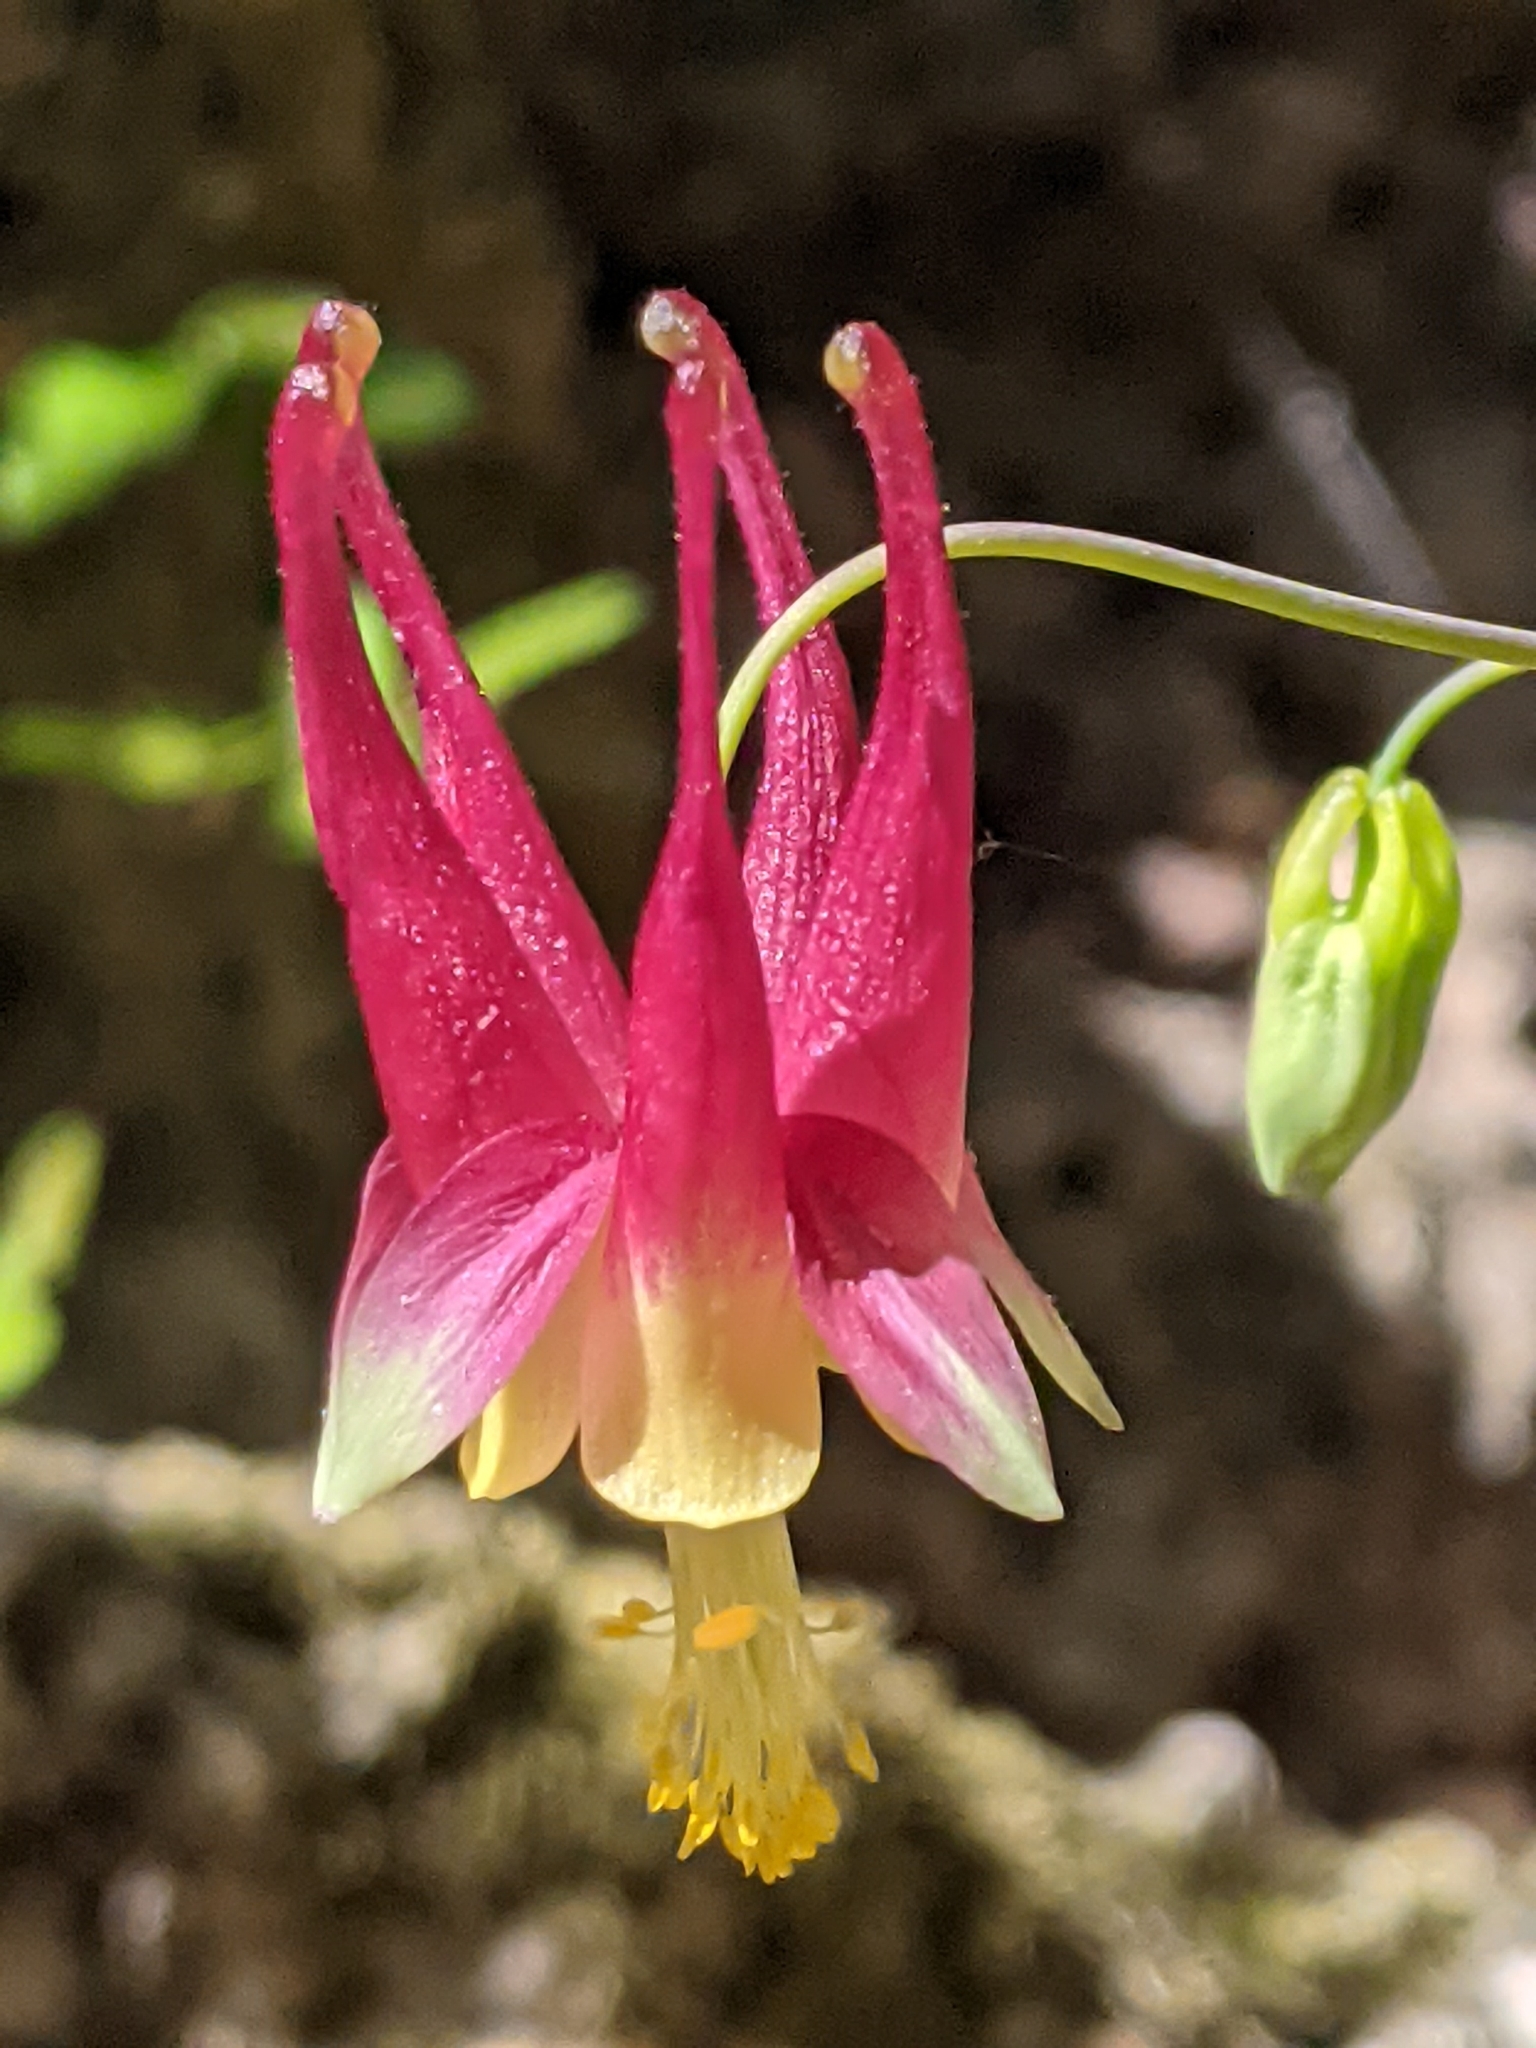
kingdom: Plantae
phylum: Tracheophyta
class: Magnoliopsida
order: Ranunculales
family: Ranunculaceae
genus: Aquilegia
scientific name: Aquilegia canadensis
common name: American columbine
